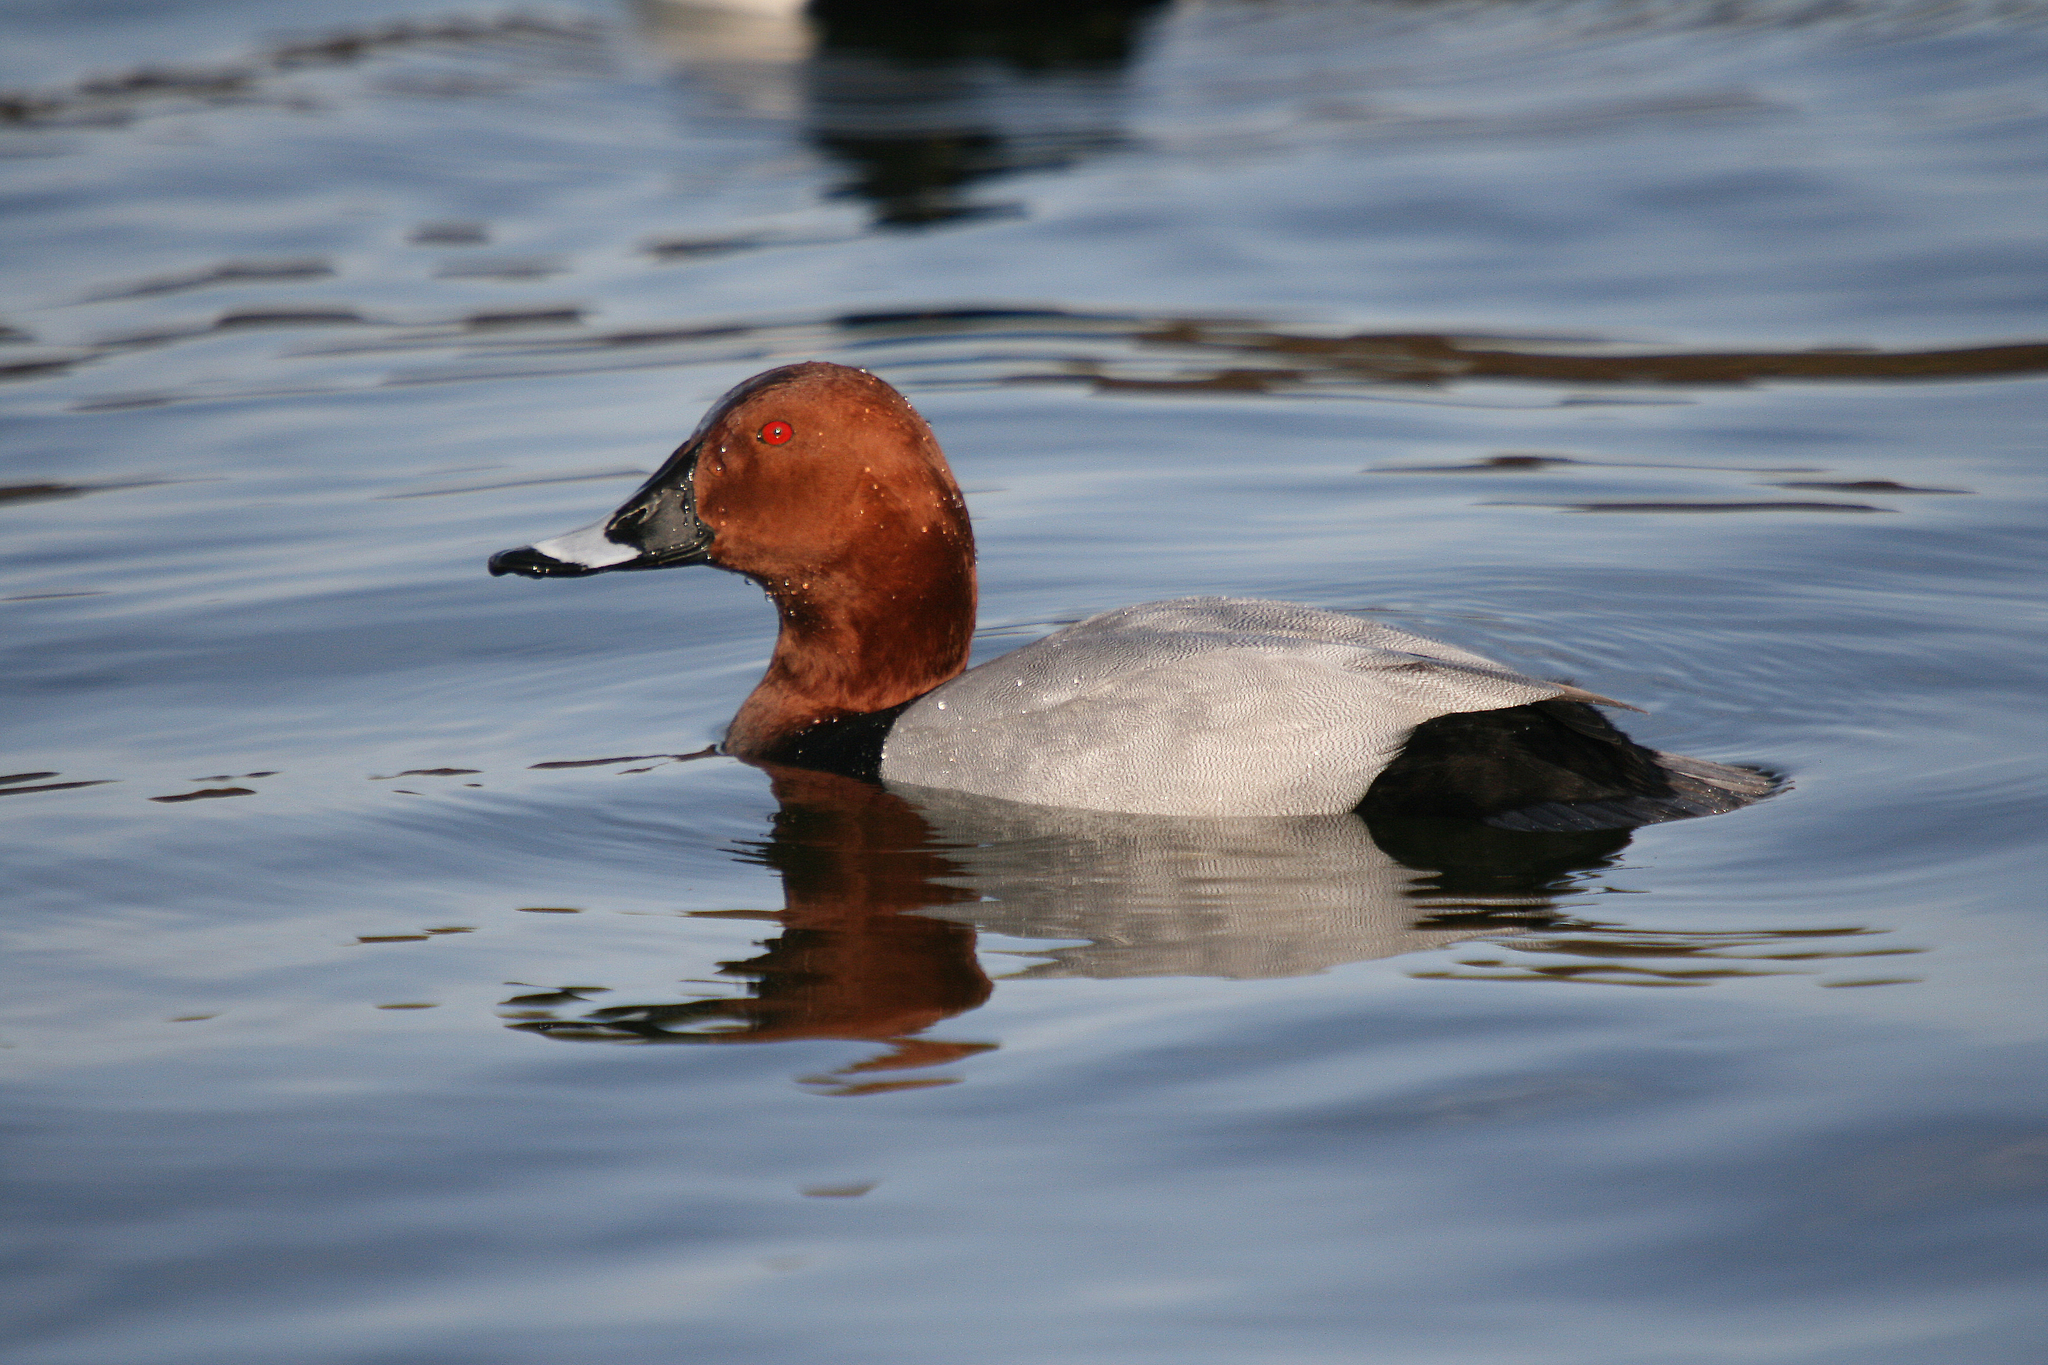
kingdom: Animalia
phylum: Chordata
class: Aves
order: Anseriformes
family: Anatidae
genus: Aythya
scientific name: Aythya ferina
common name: Common pochard
